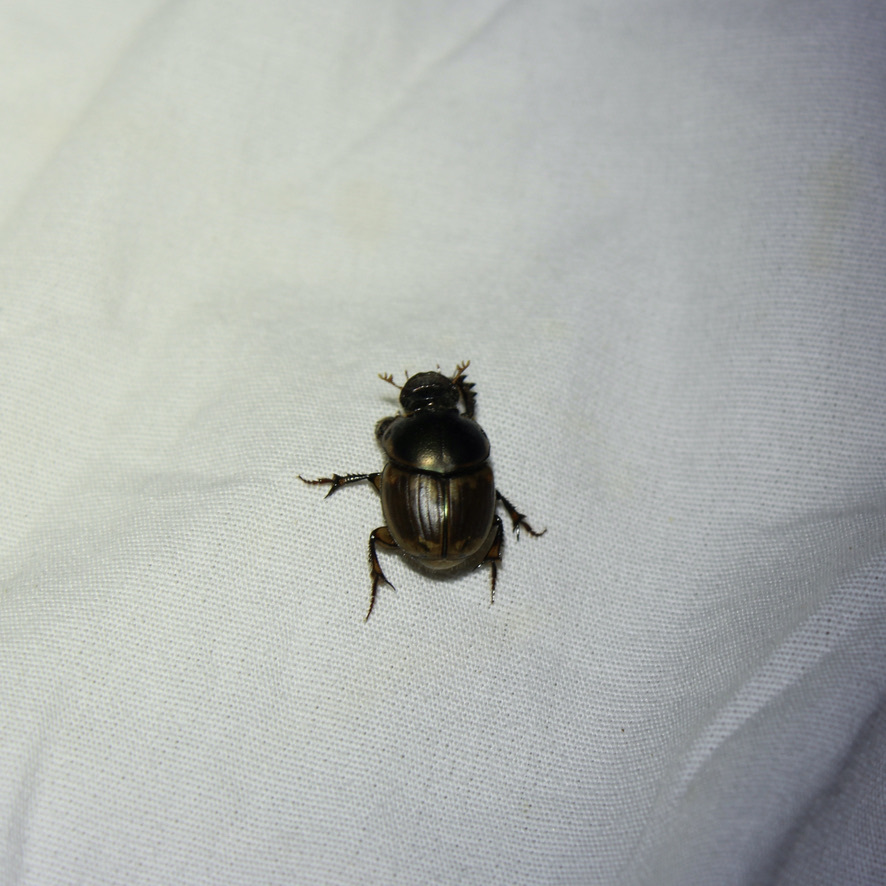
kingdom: Animalia
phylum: Arthropoda
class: Insecta
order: Coleoptera
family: Scarabaeidae
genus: Digitonthophagus
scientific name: Digitonthophagus gazella
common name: Brown dung beetle
